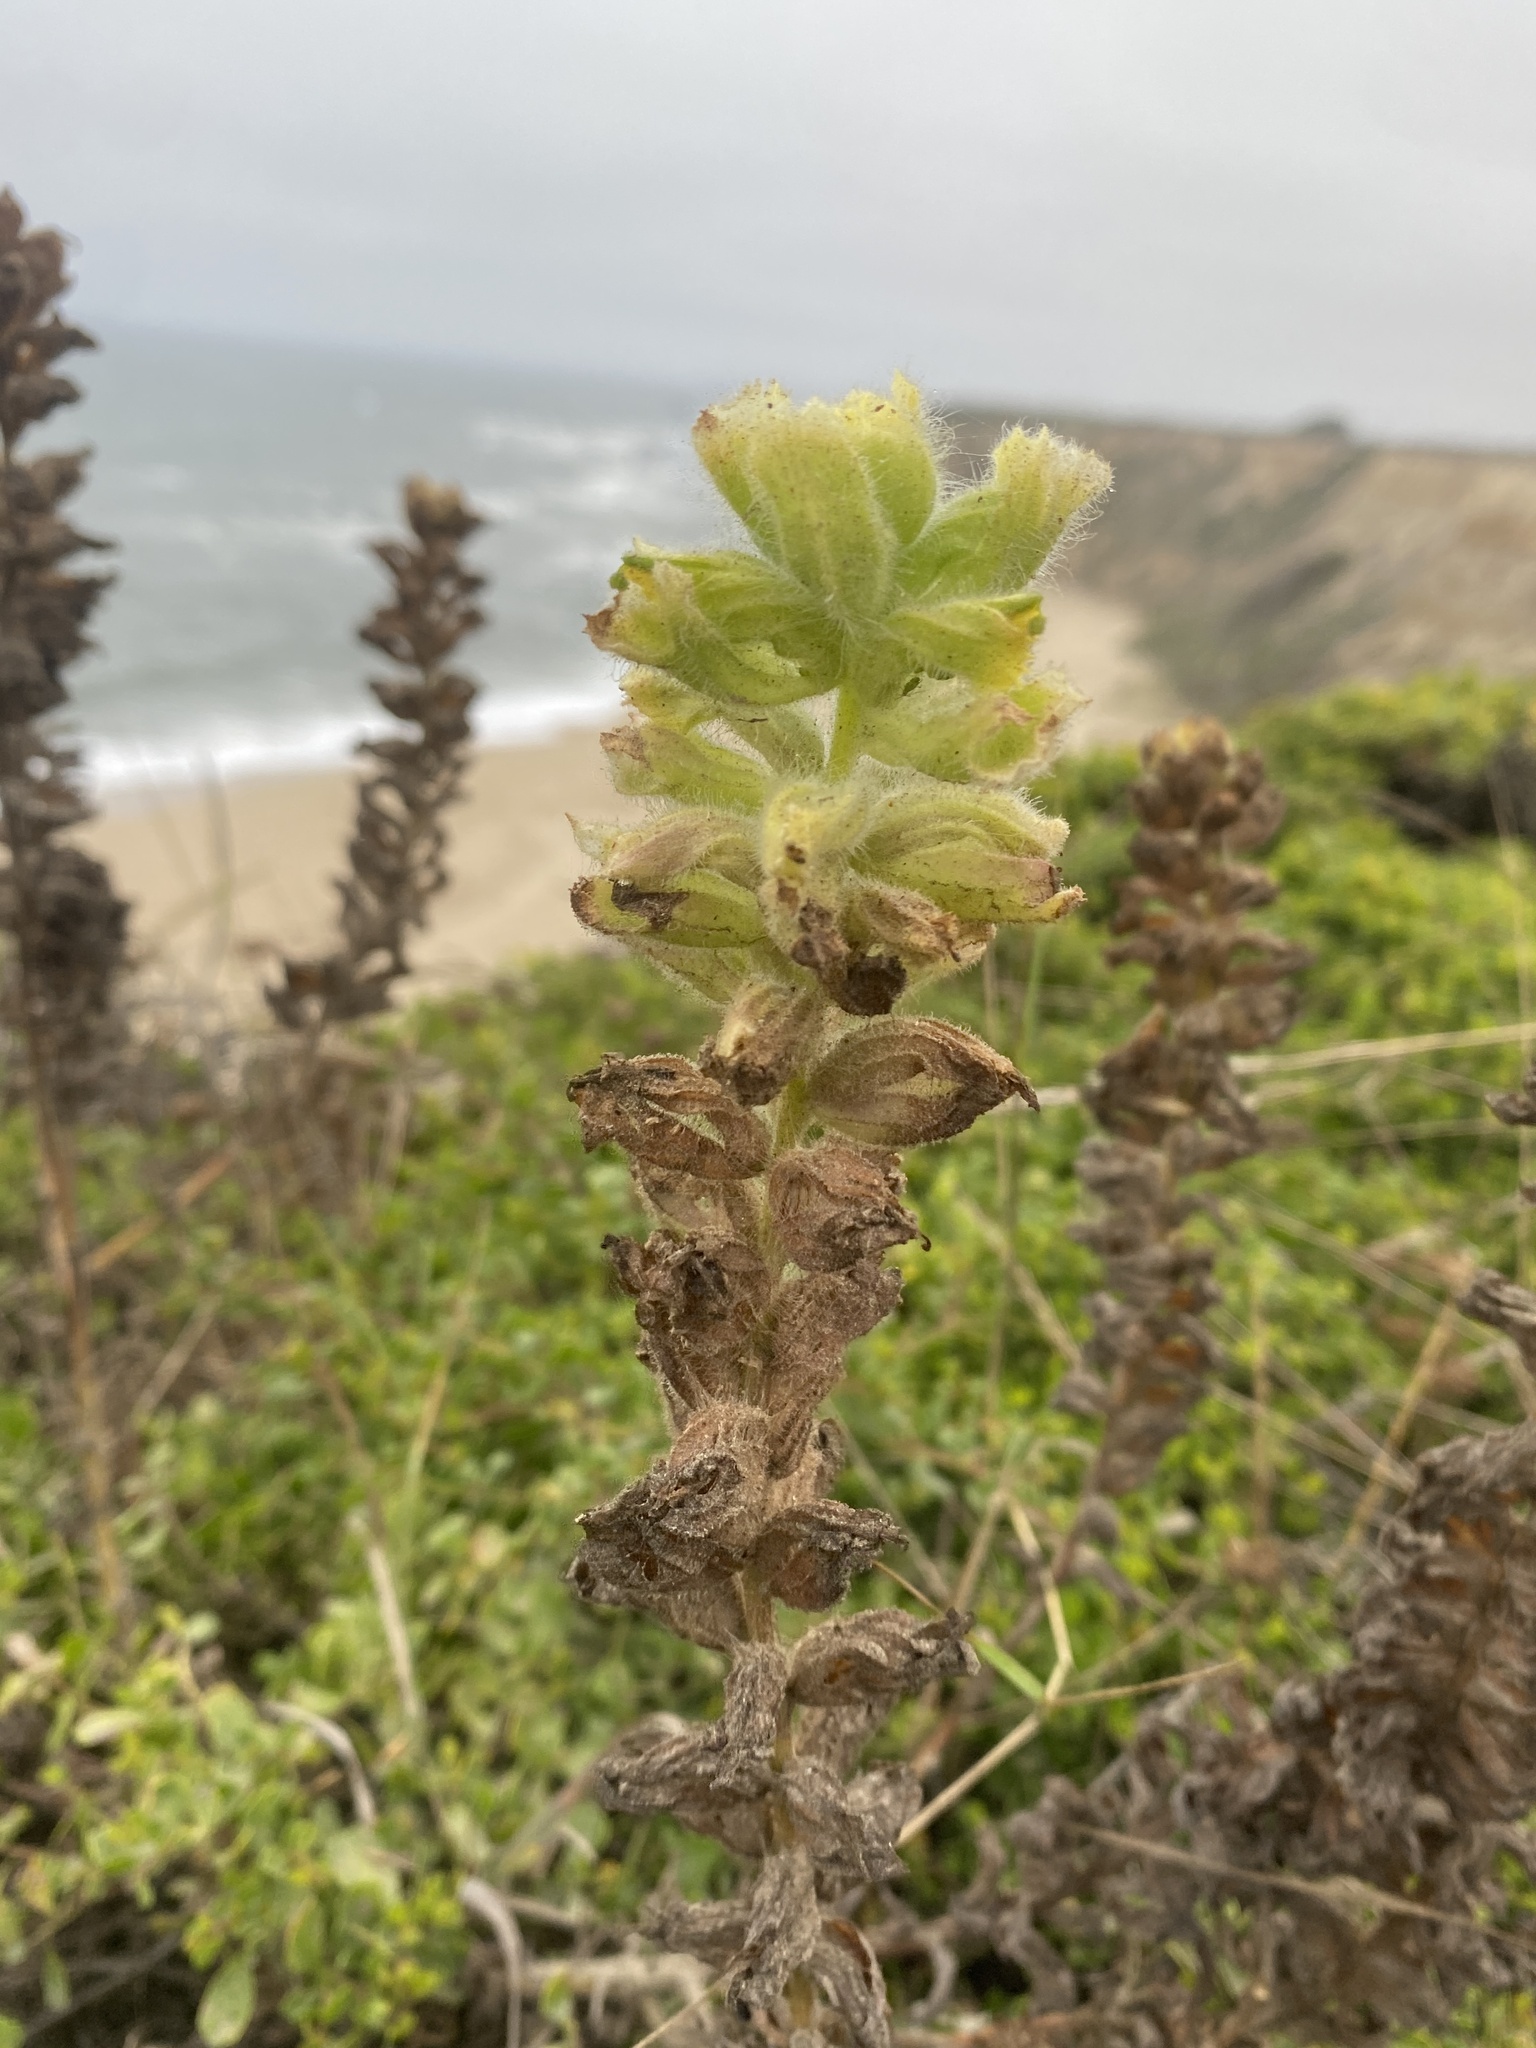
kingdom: Plantae
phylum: Tracheophyta
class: Magnoliopsida
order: Lamiales
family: Orobanchaceae
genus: Castilleja
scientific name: Castilleja wightii
